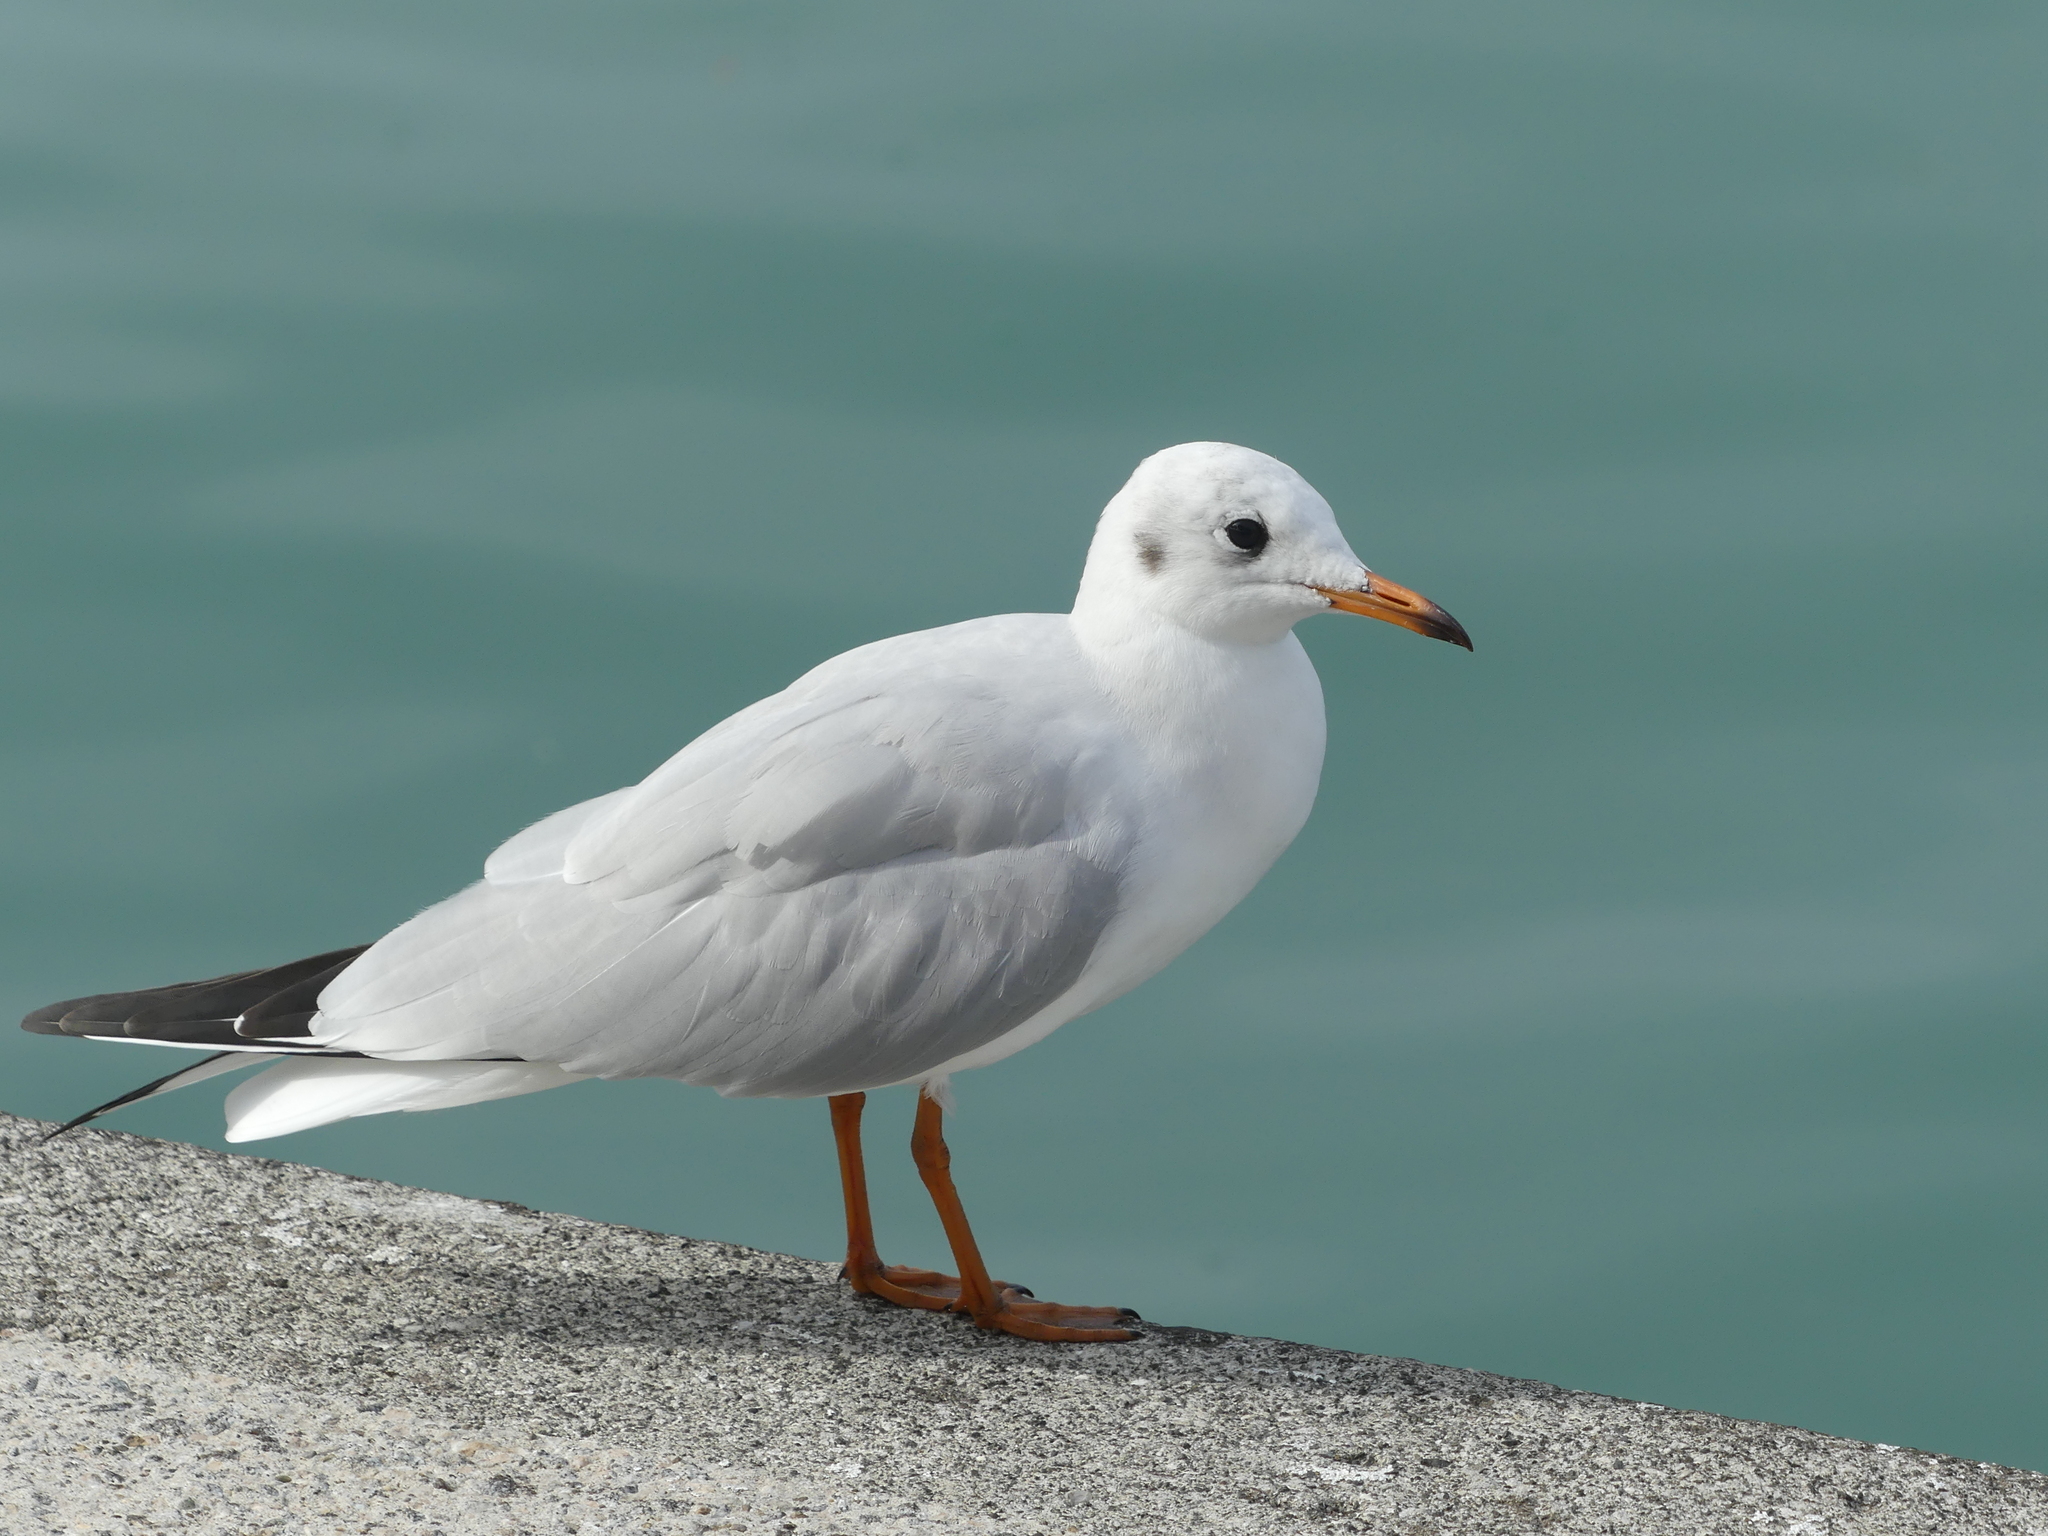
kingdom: Animalia
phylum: Chordata
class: Aves
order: Charadriiformes
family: Laridae
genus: Chroicocephalus
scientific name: Chroicocephalus ridibundus
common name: Black-headed gull
